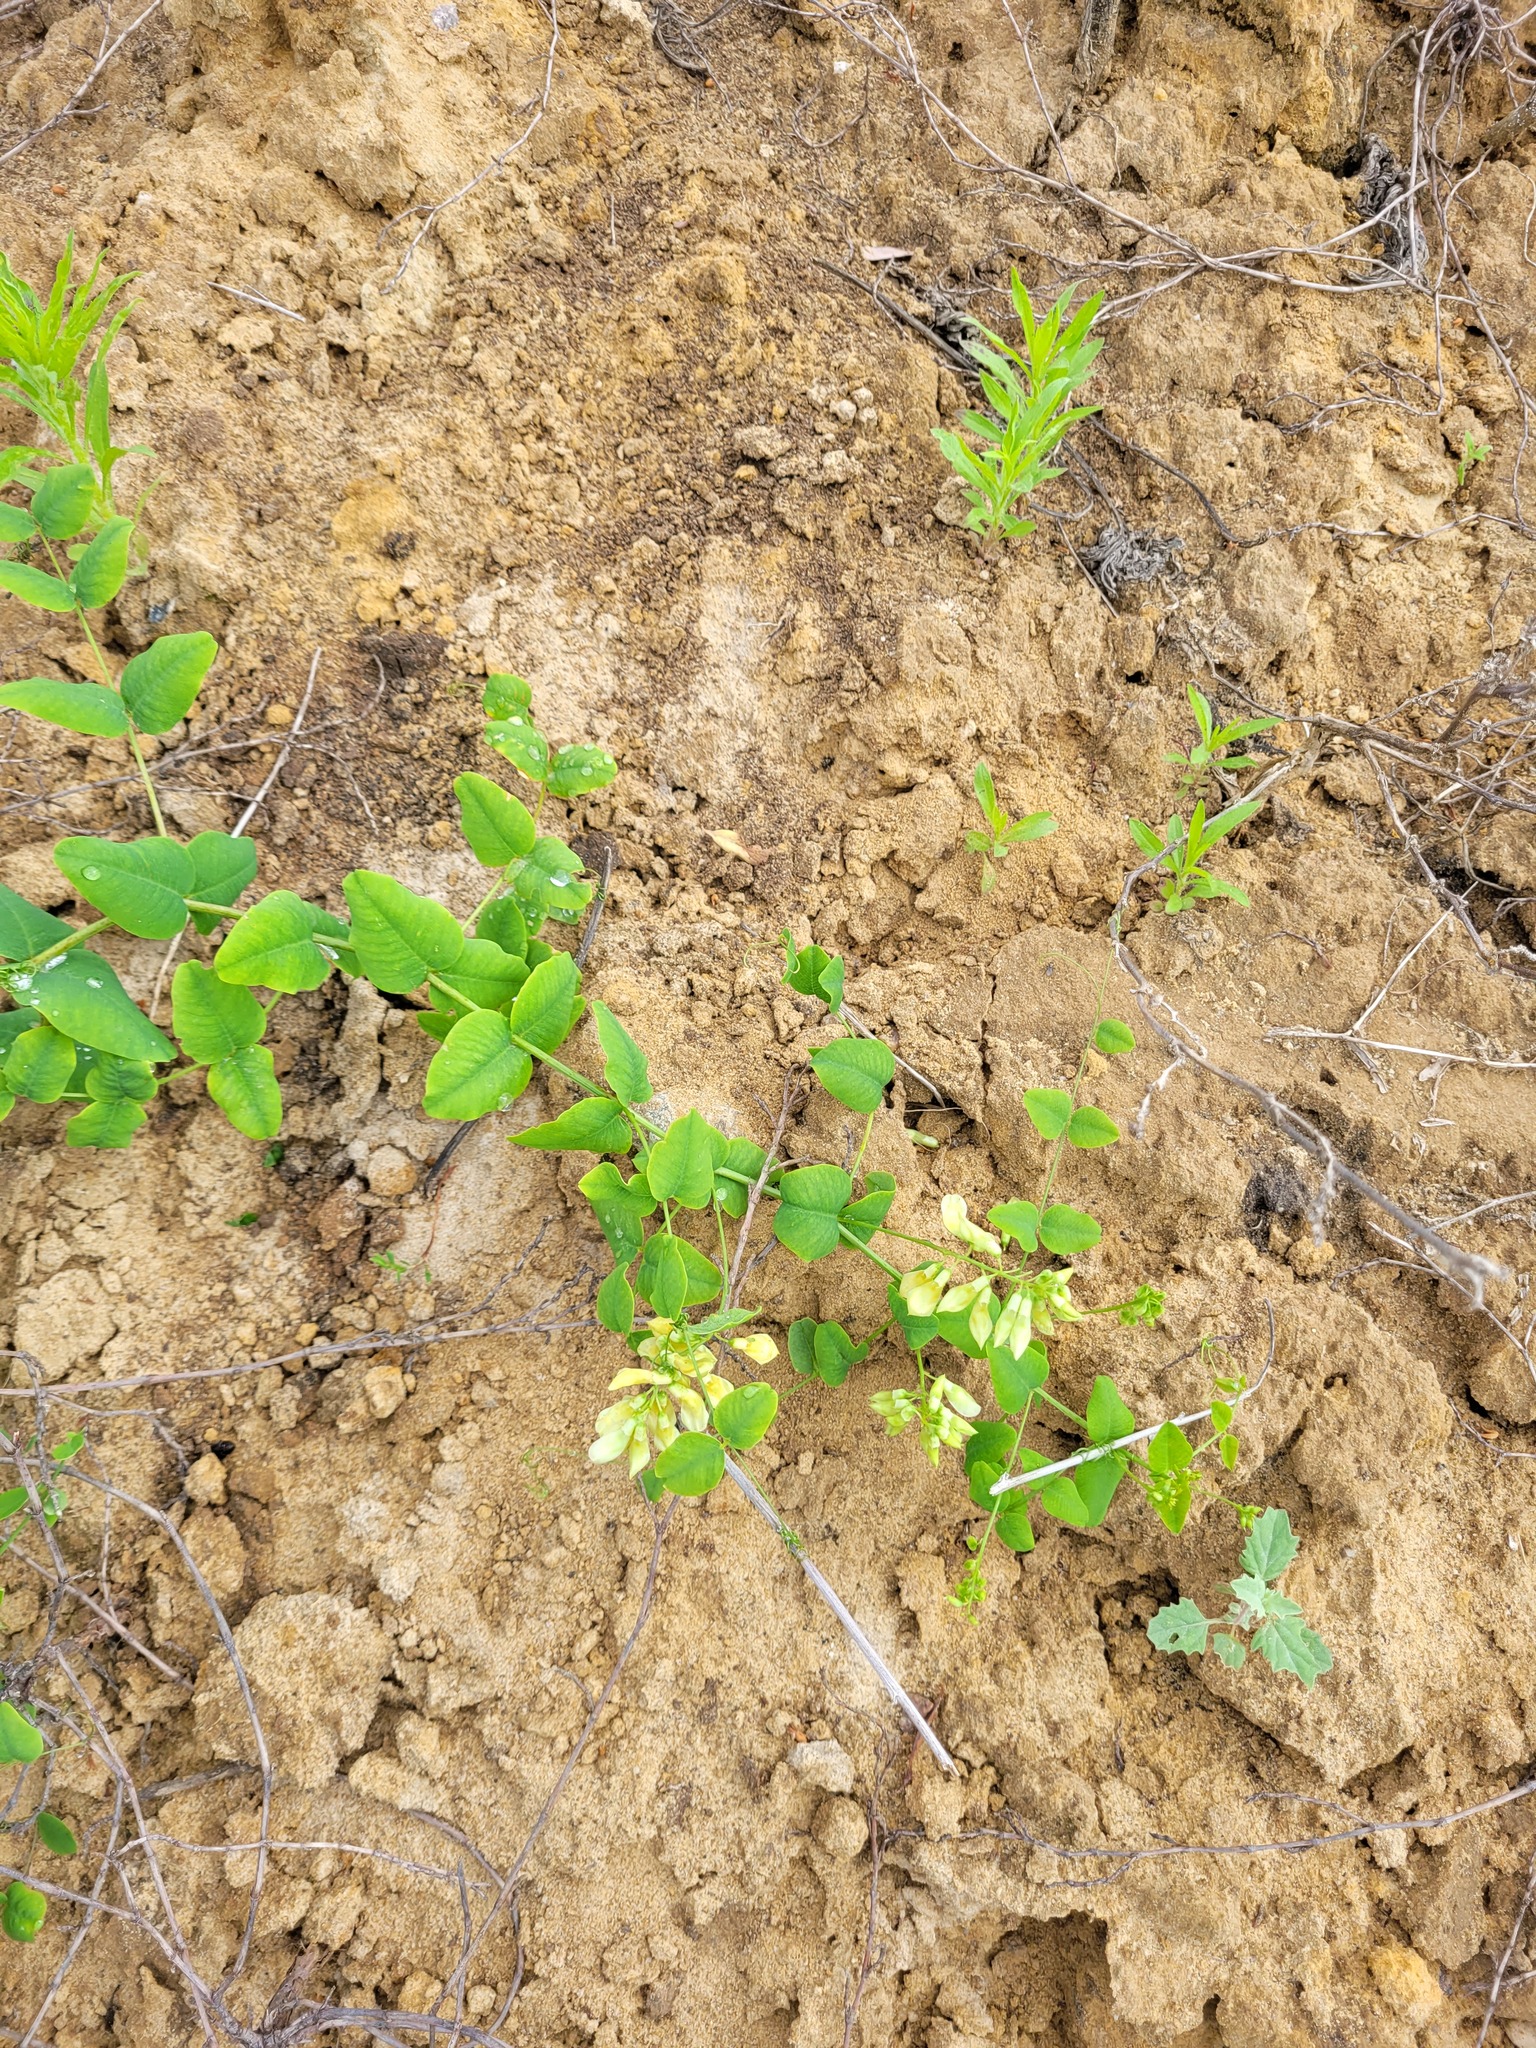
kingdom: Plantae
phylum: Tracheophyta
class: Magnoliopsida
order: Fabales
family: Fabaceae
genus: Vicia
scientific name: Vicia pisiformis
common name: Pale-flower vetch
